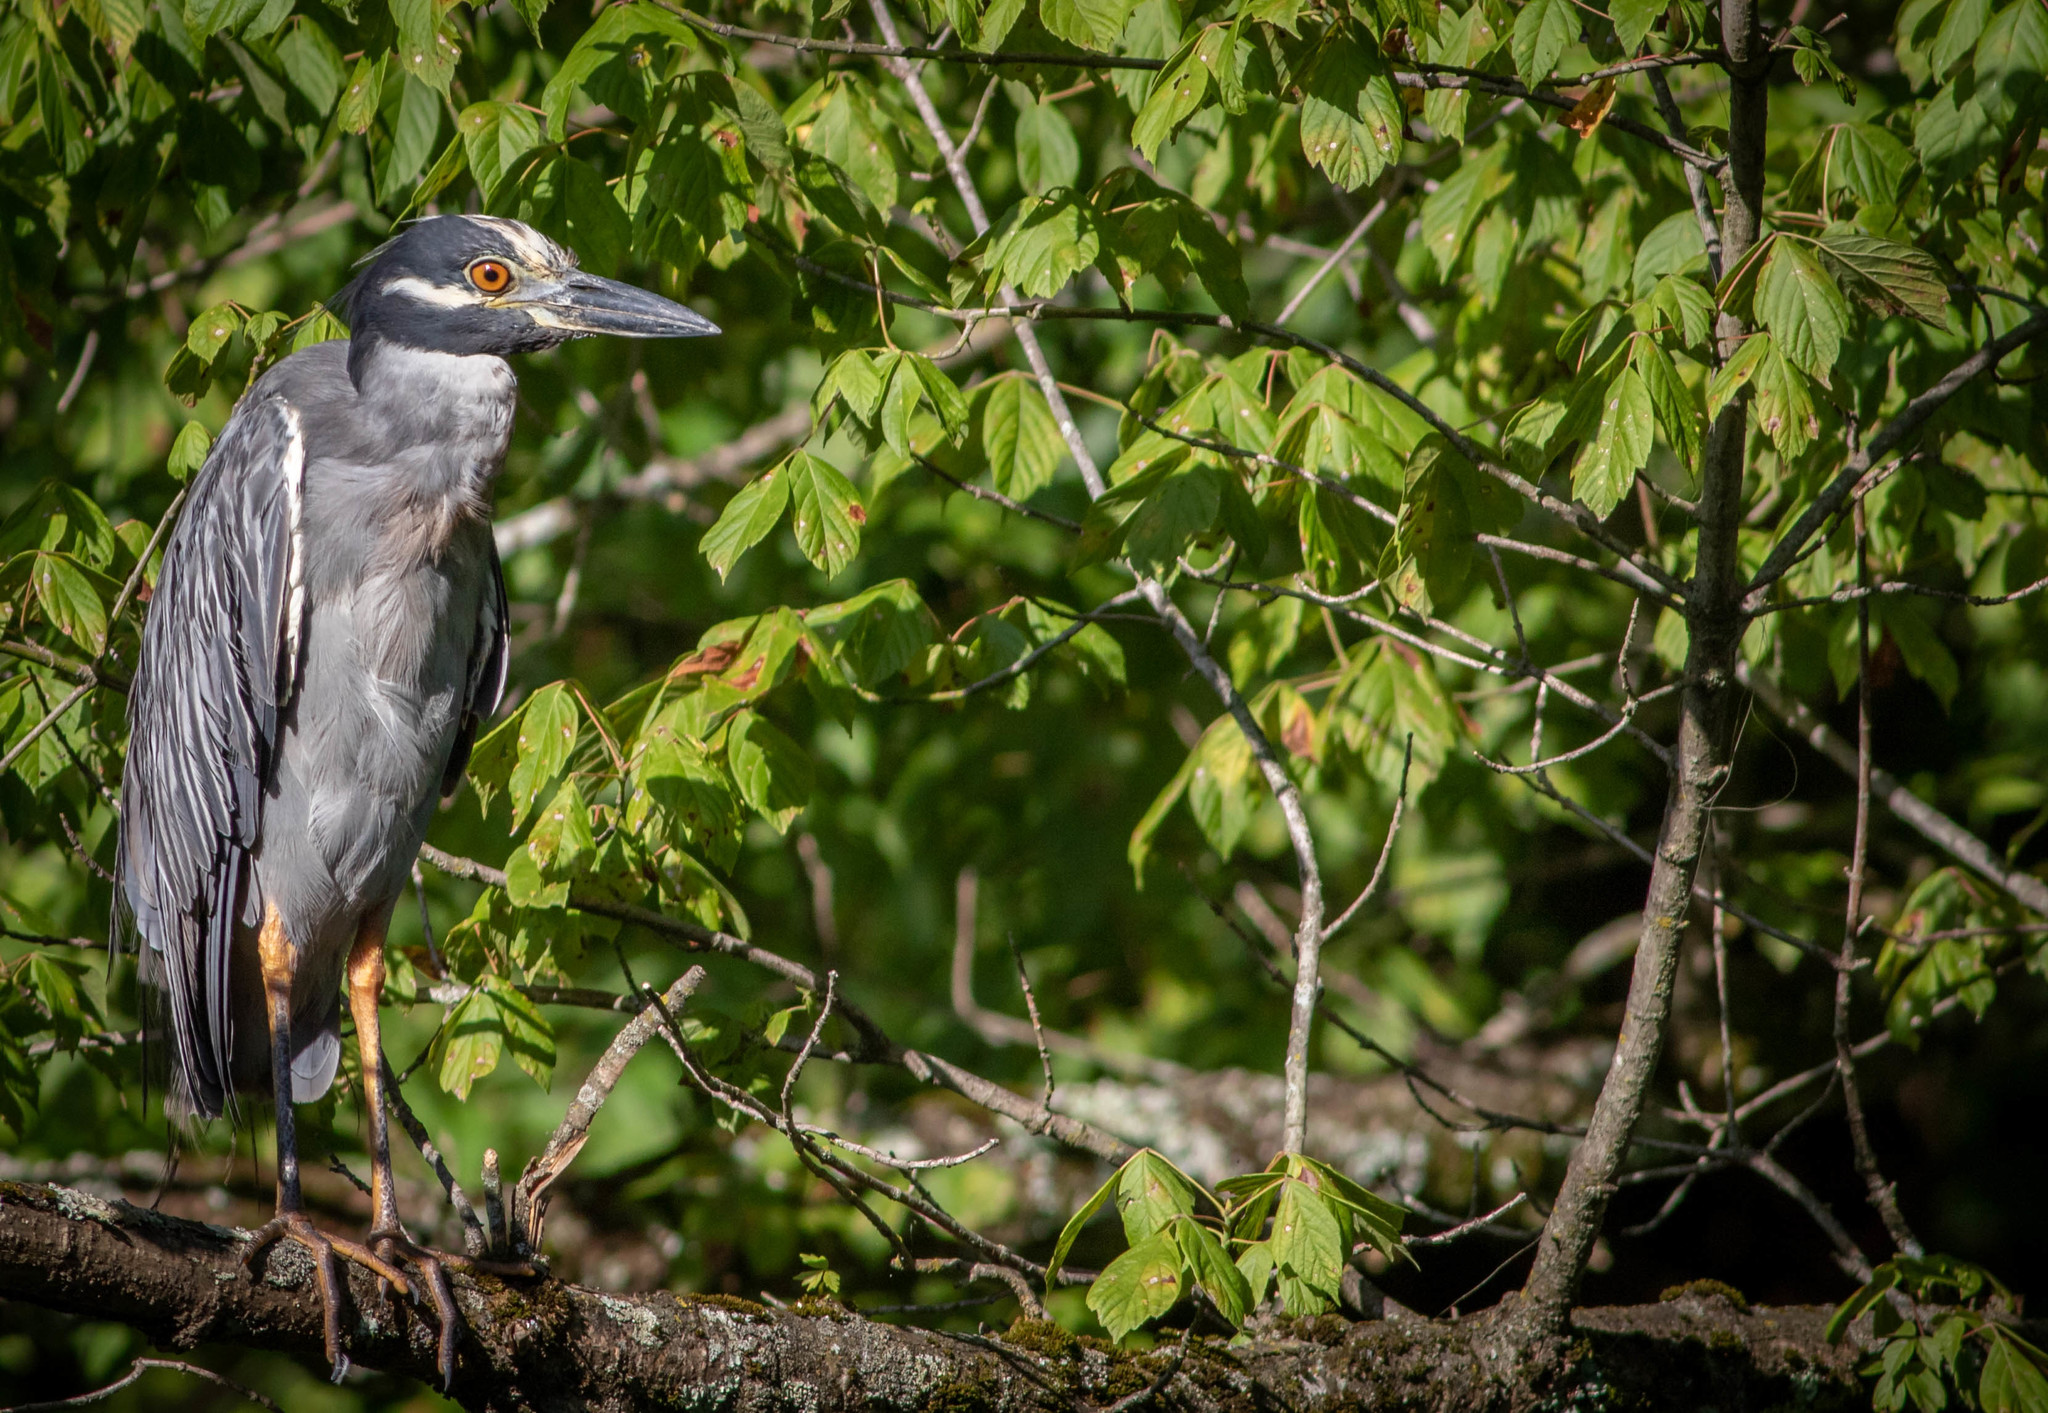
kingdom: Animalia
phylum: Chordata
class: Aves
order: Pelecaniformes
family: Ardeidae
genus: Nyctanassa
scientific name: Nyctanassa violacea
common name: Yellow-crowned night heron
